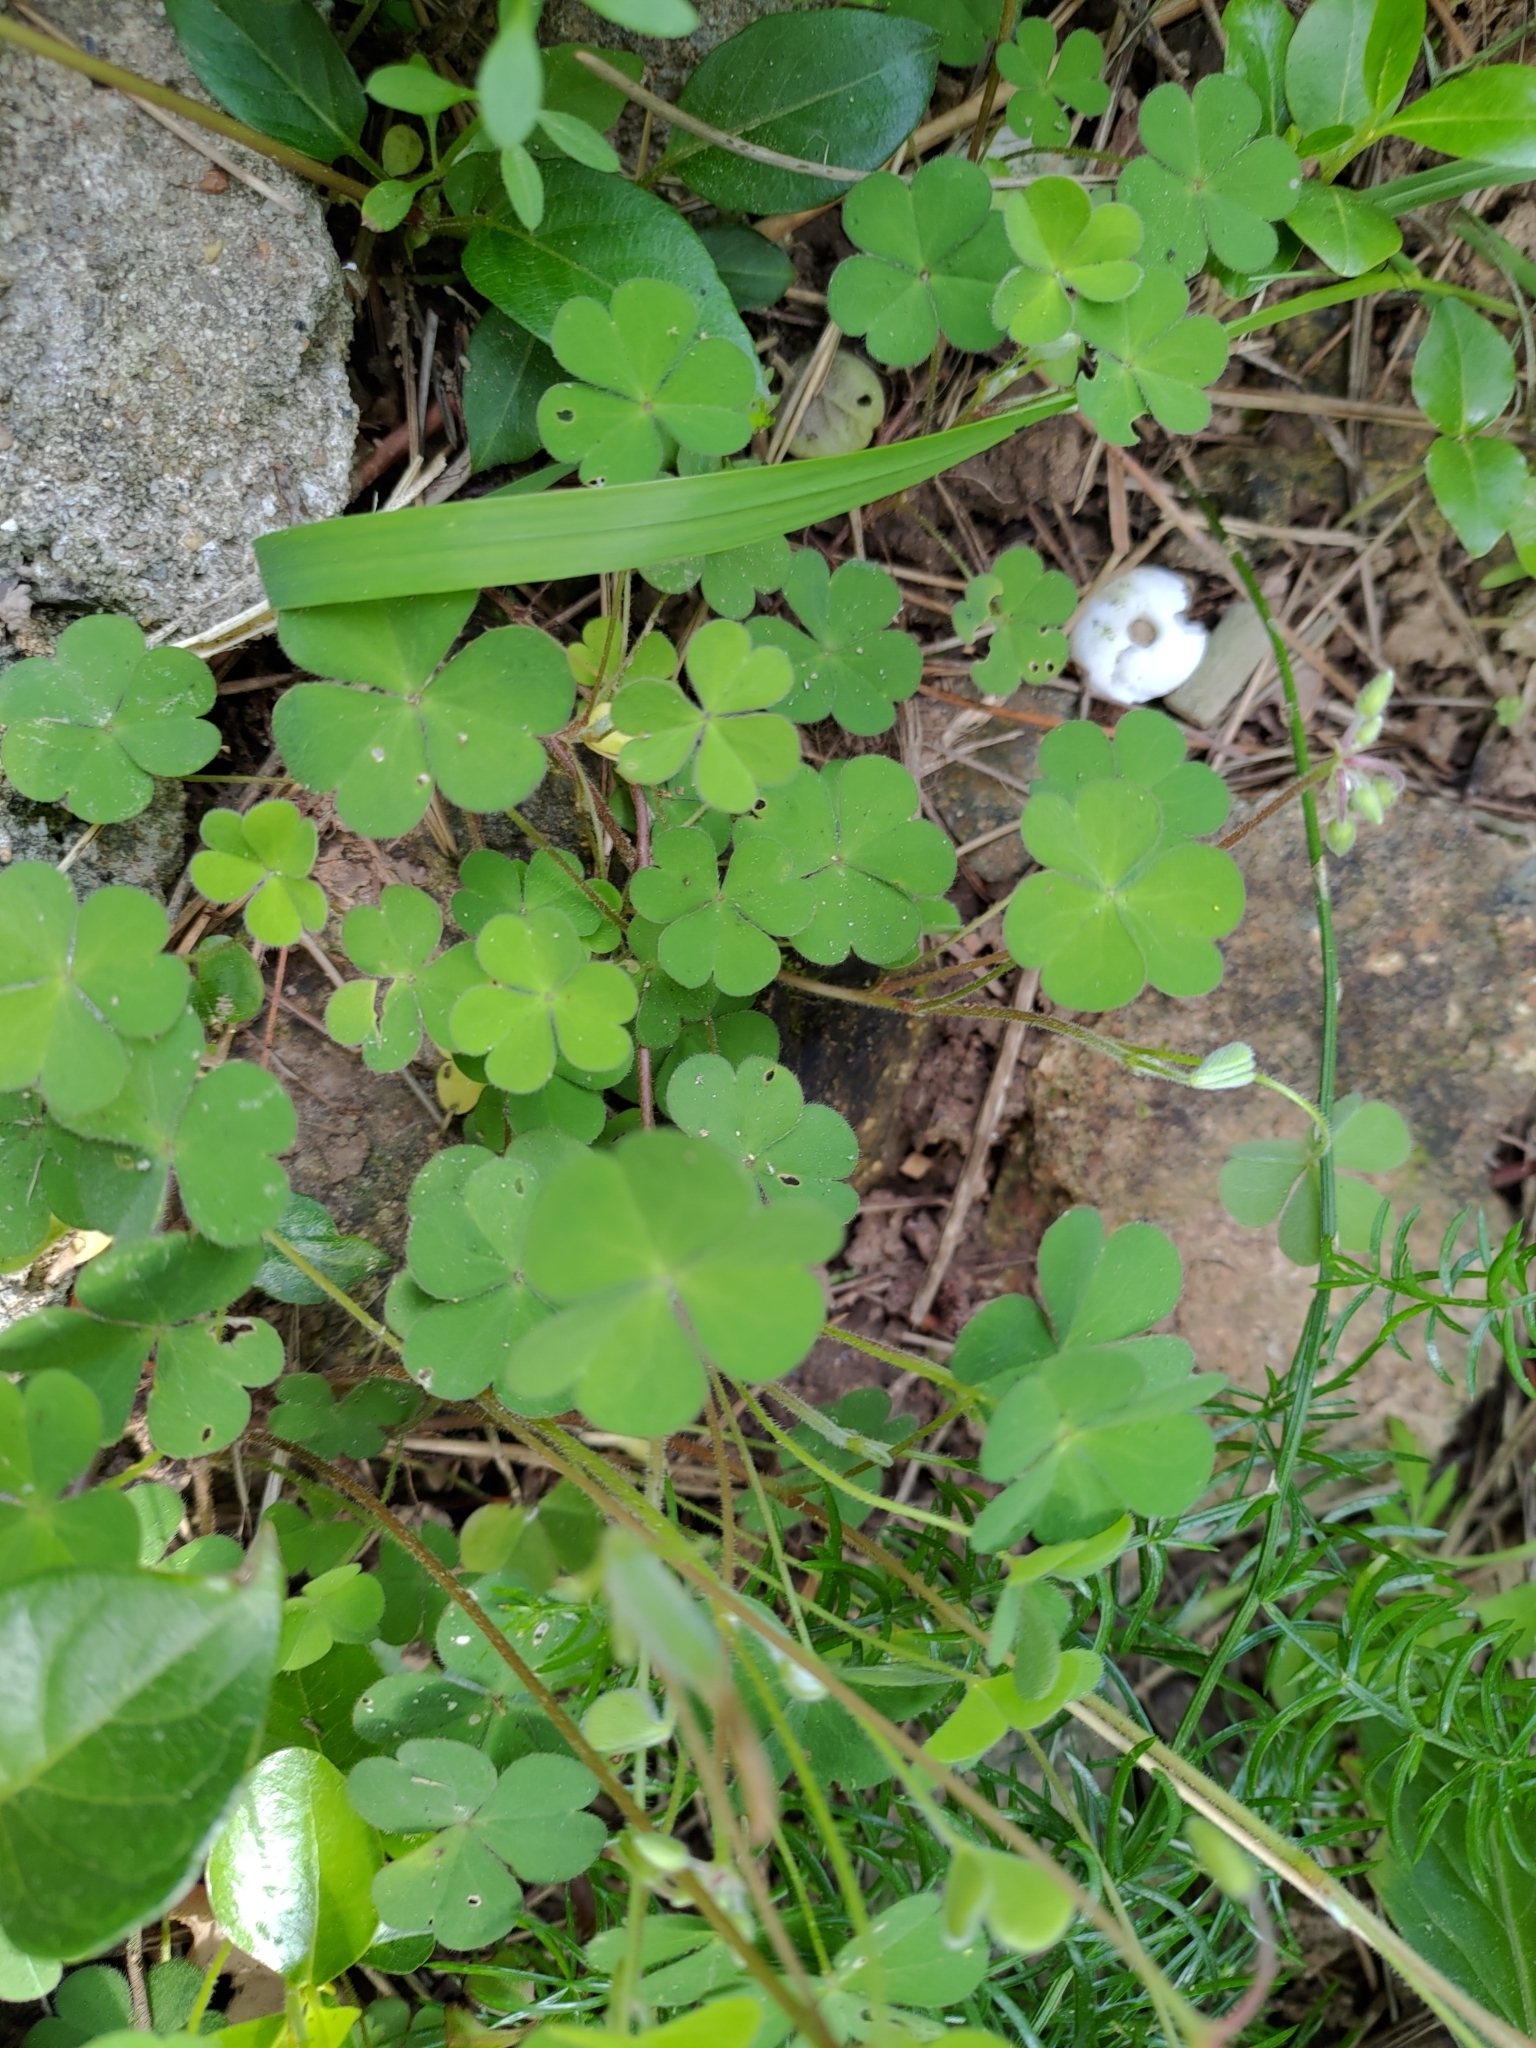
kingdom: Plantae
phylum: Tracheophyta
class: Magnoliopsida
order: Oxalidales
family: Oxalidaceae
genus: Oxalis
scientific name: Oxalis corniculata
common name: Procumbent yellow-sorrel
